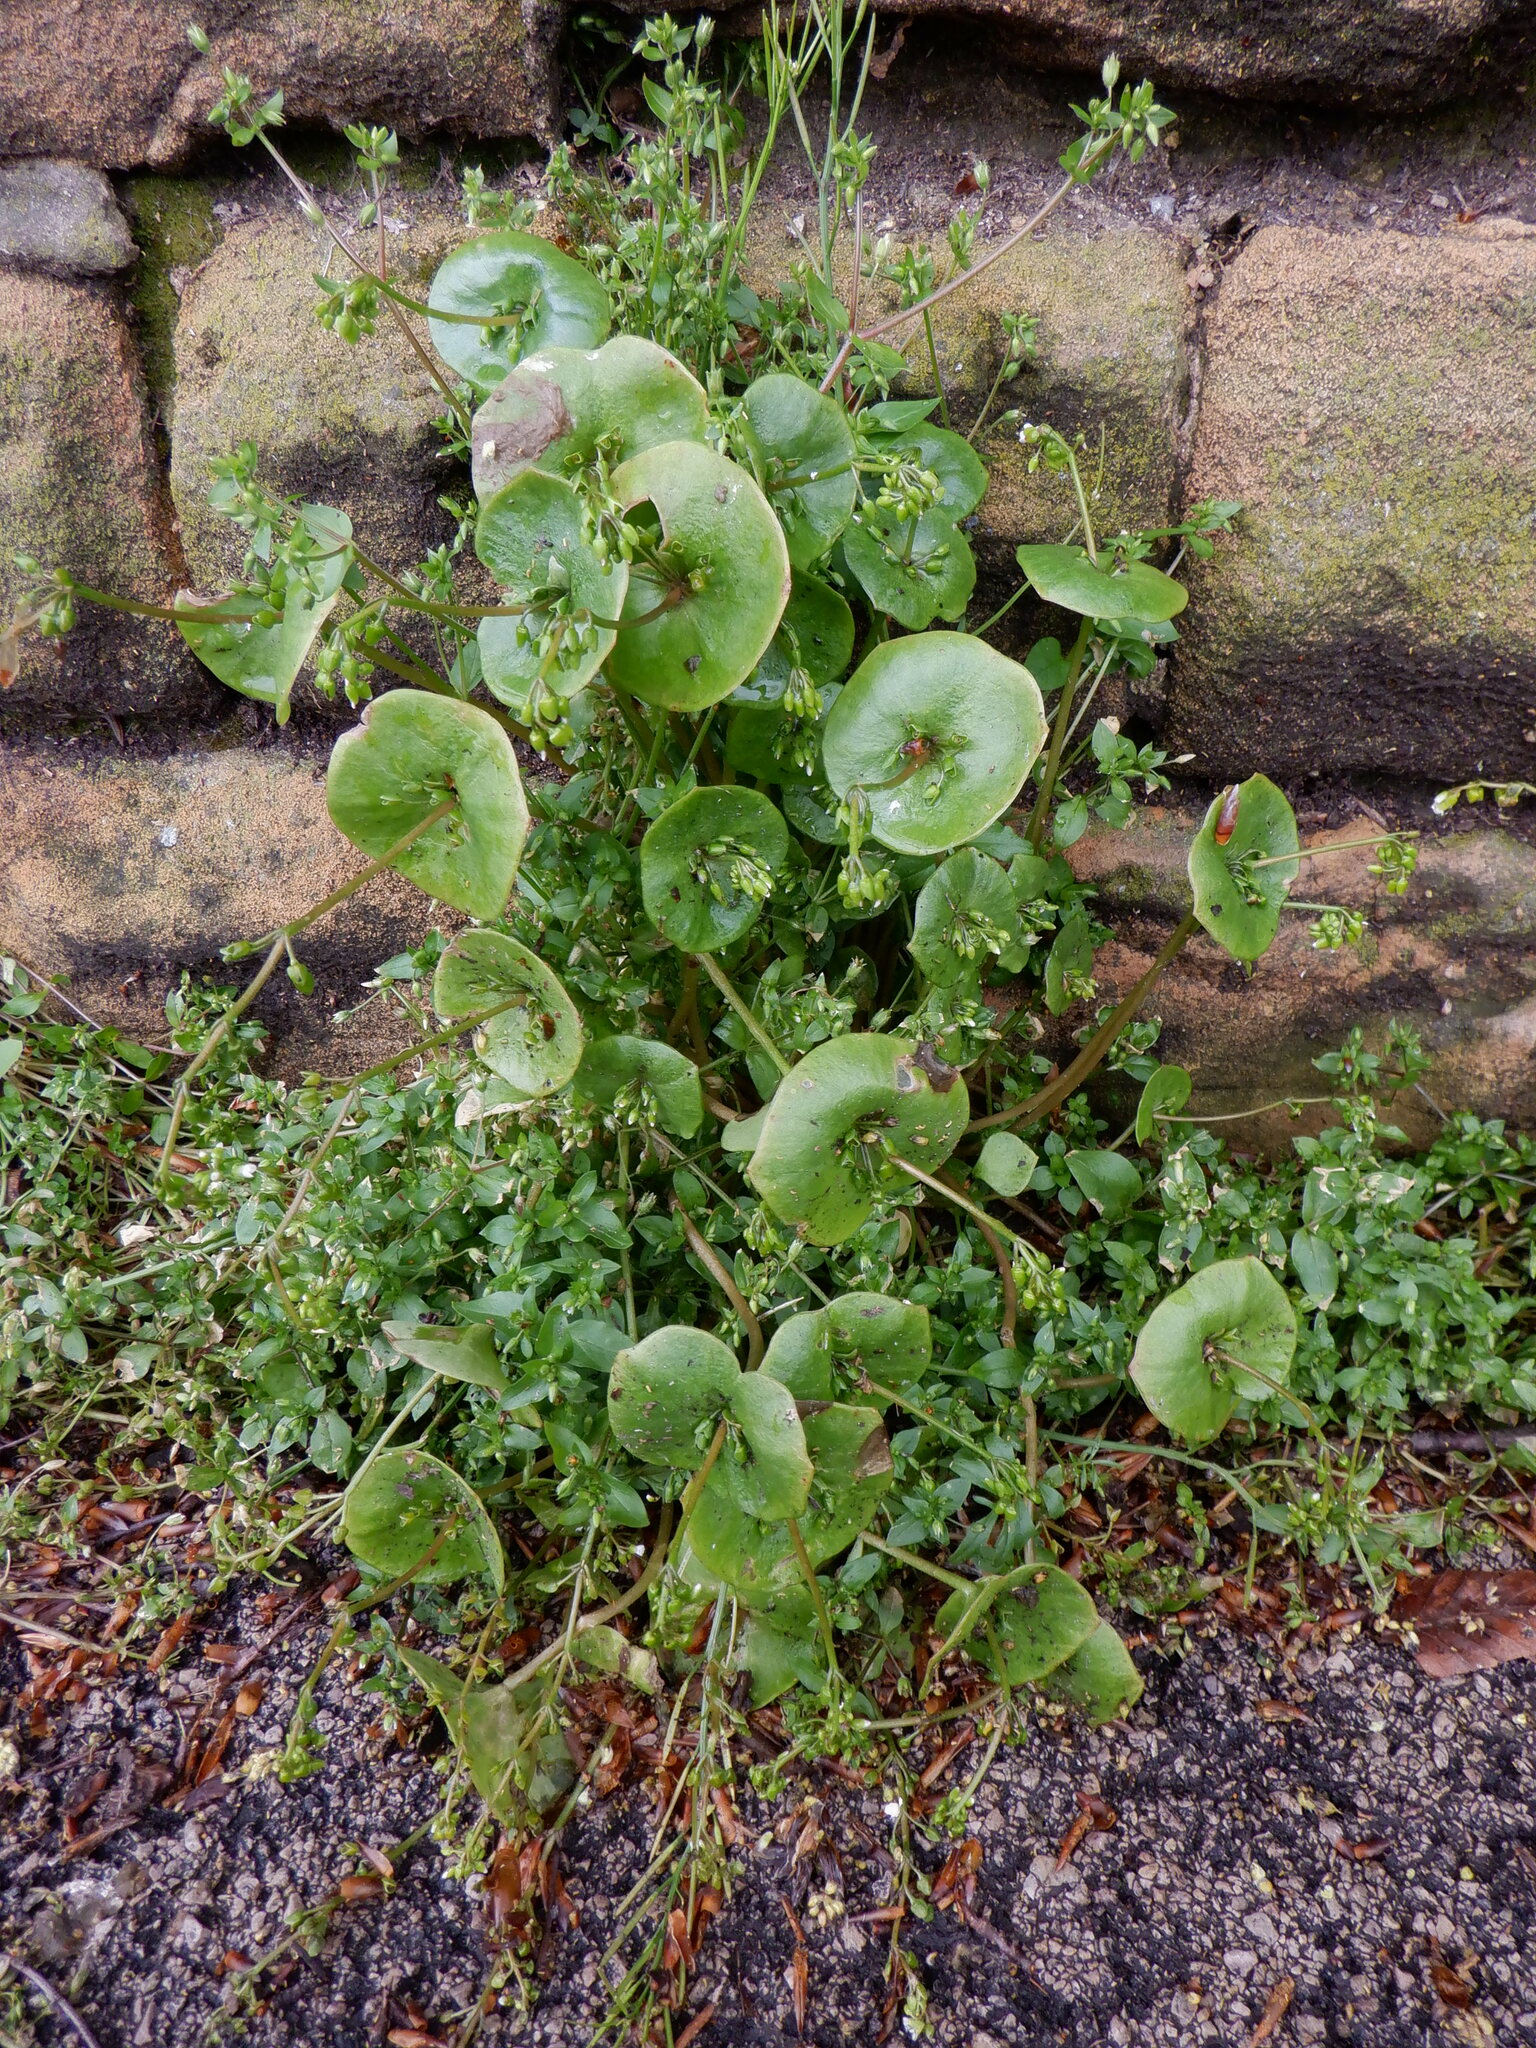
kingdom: Plantae
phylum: Tracheophyta
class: Magnoliopsida
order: Caryophyllales
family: Montiaceae
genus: Claytonia
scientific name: Claytonia perfoliata
